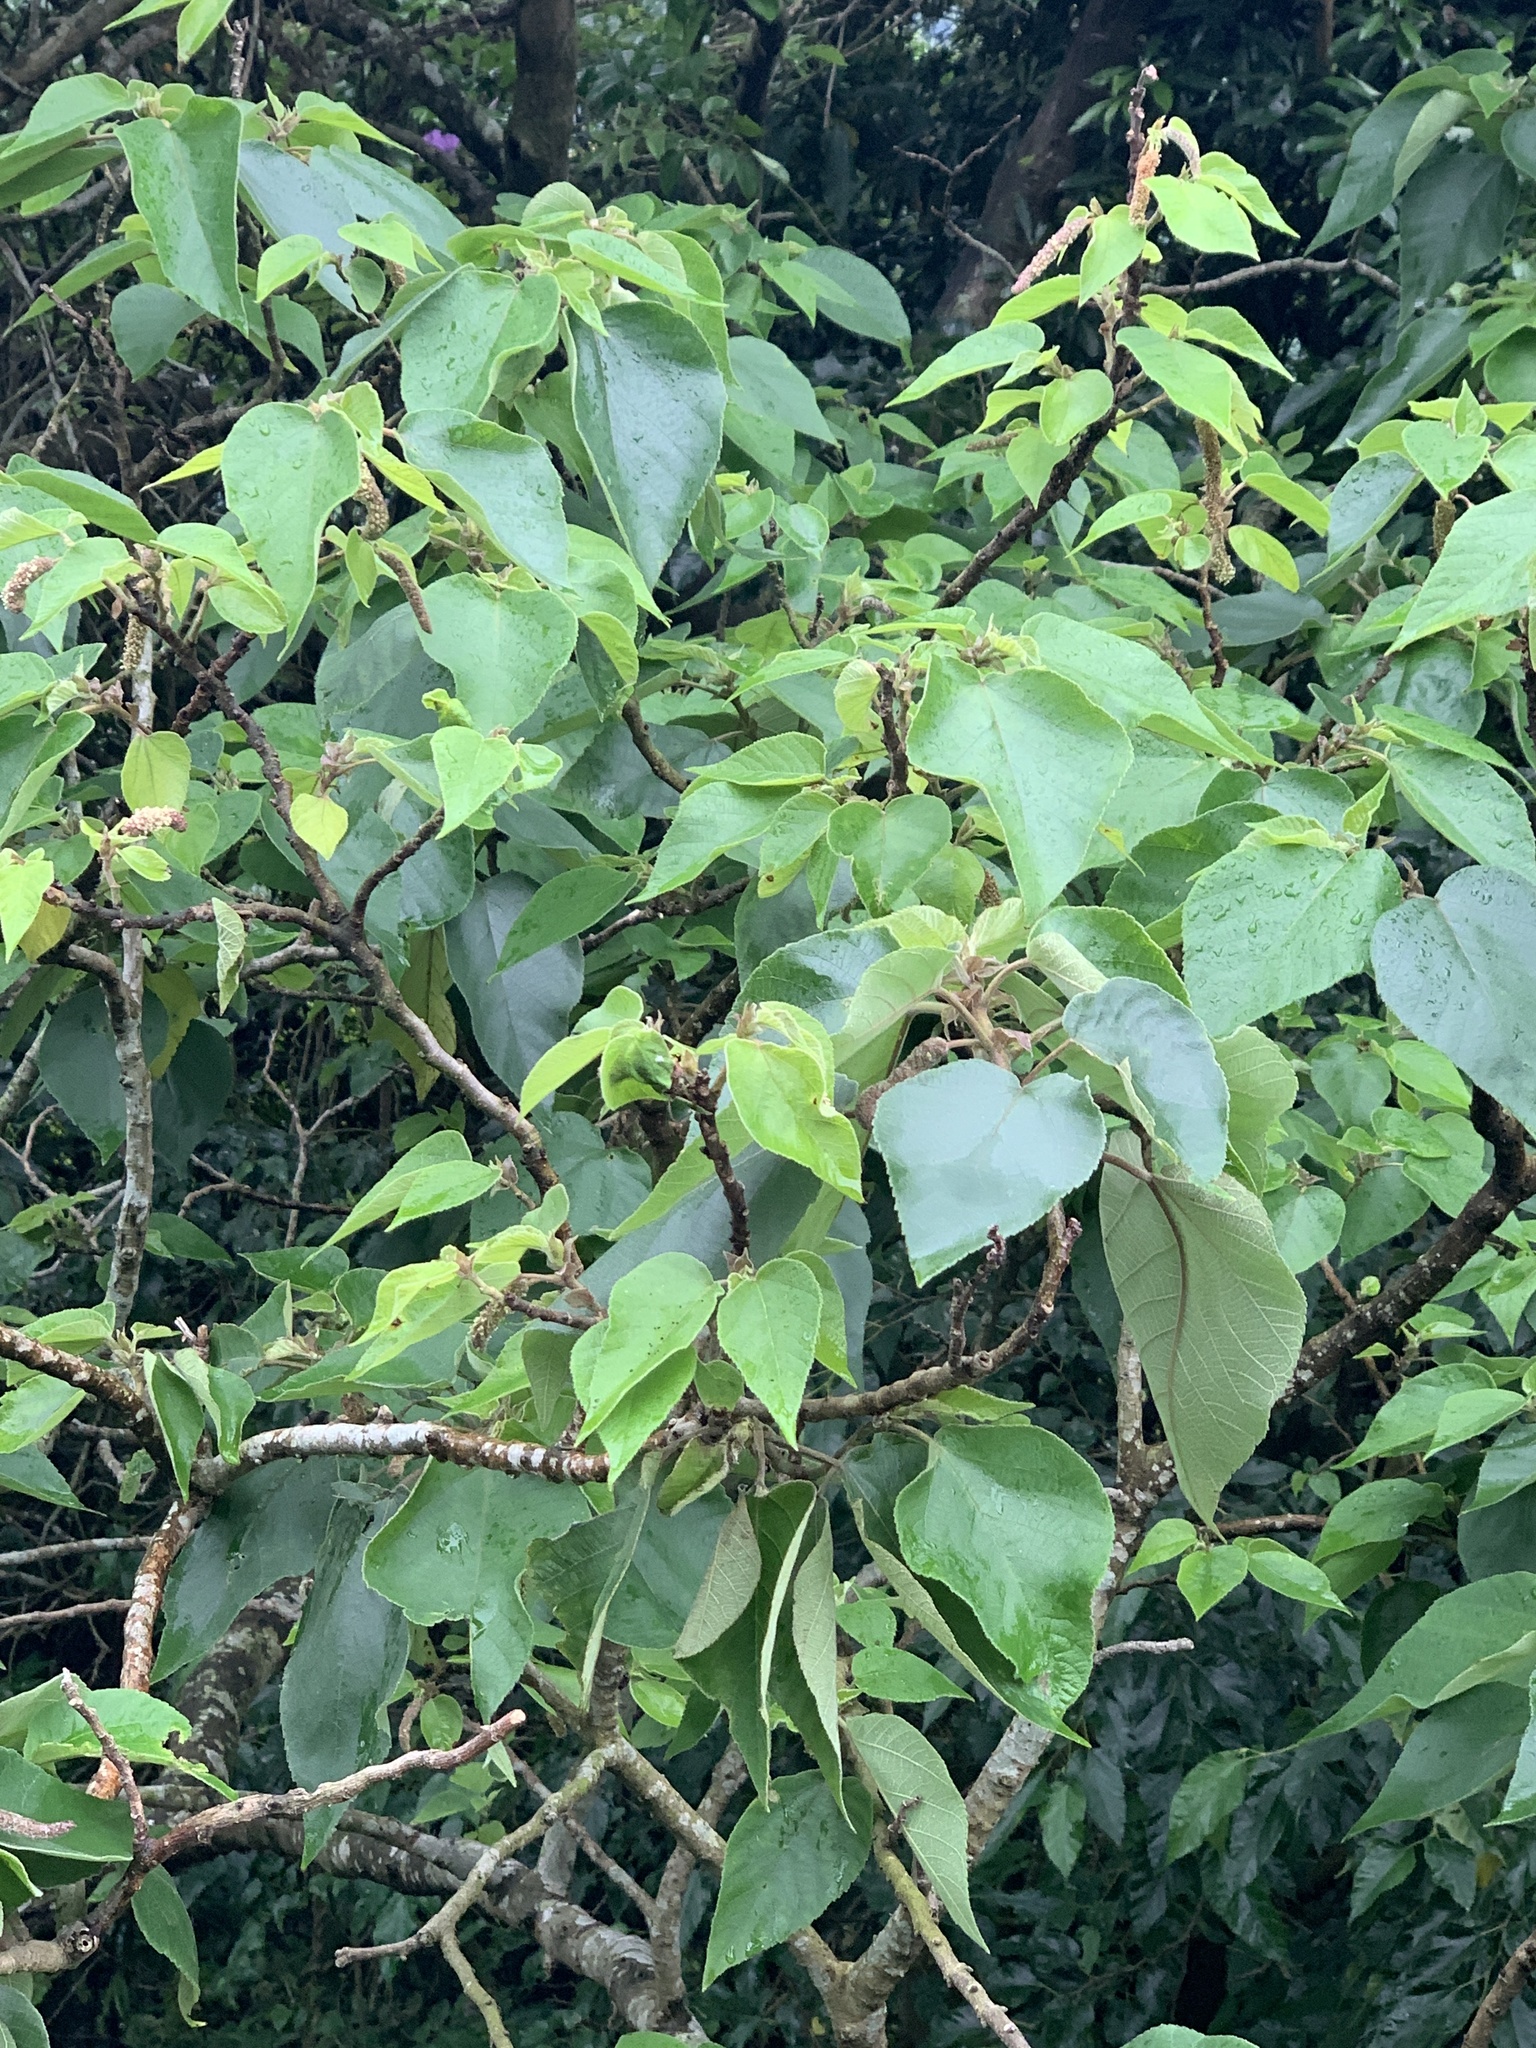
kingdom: Plantae
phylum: Tracheophyta
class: Magnoliopsida
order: Rosales
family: Moraceae
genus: Broussonetia
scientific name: Broussonetia papyrifera
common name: Paper mulberry
